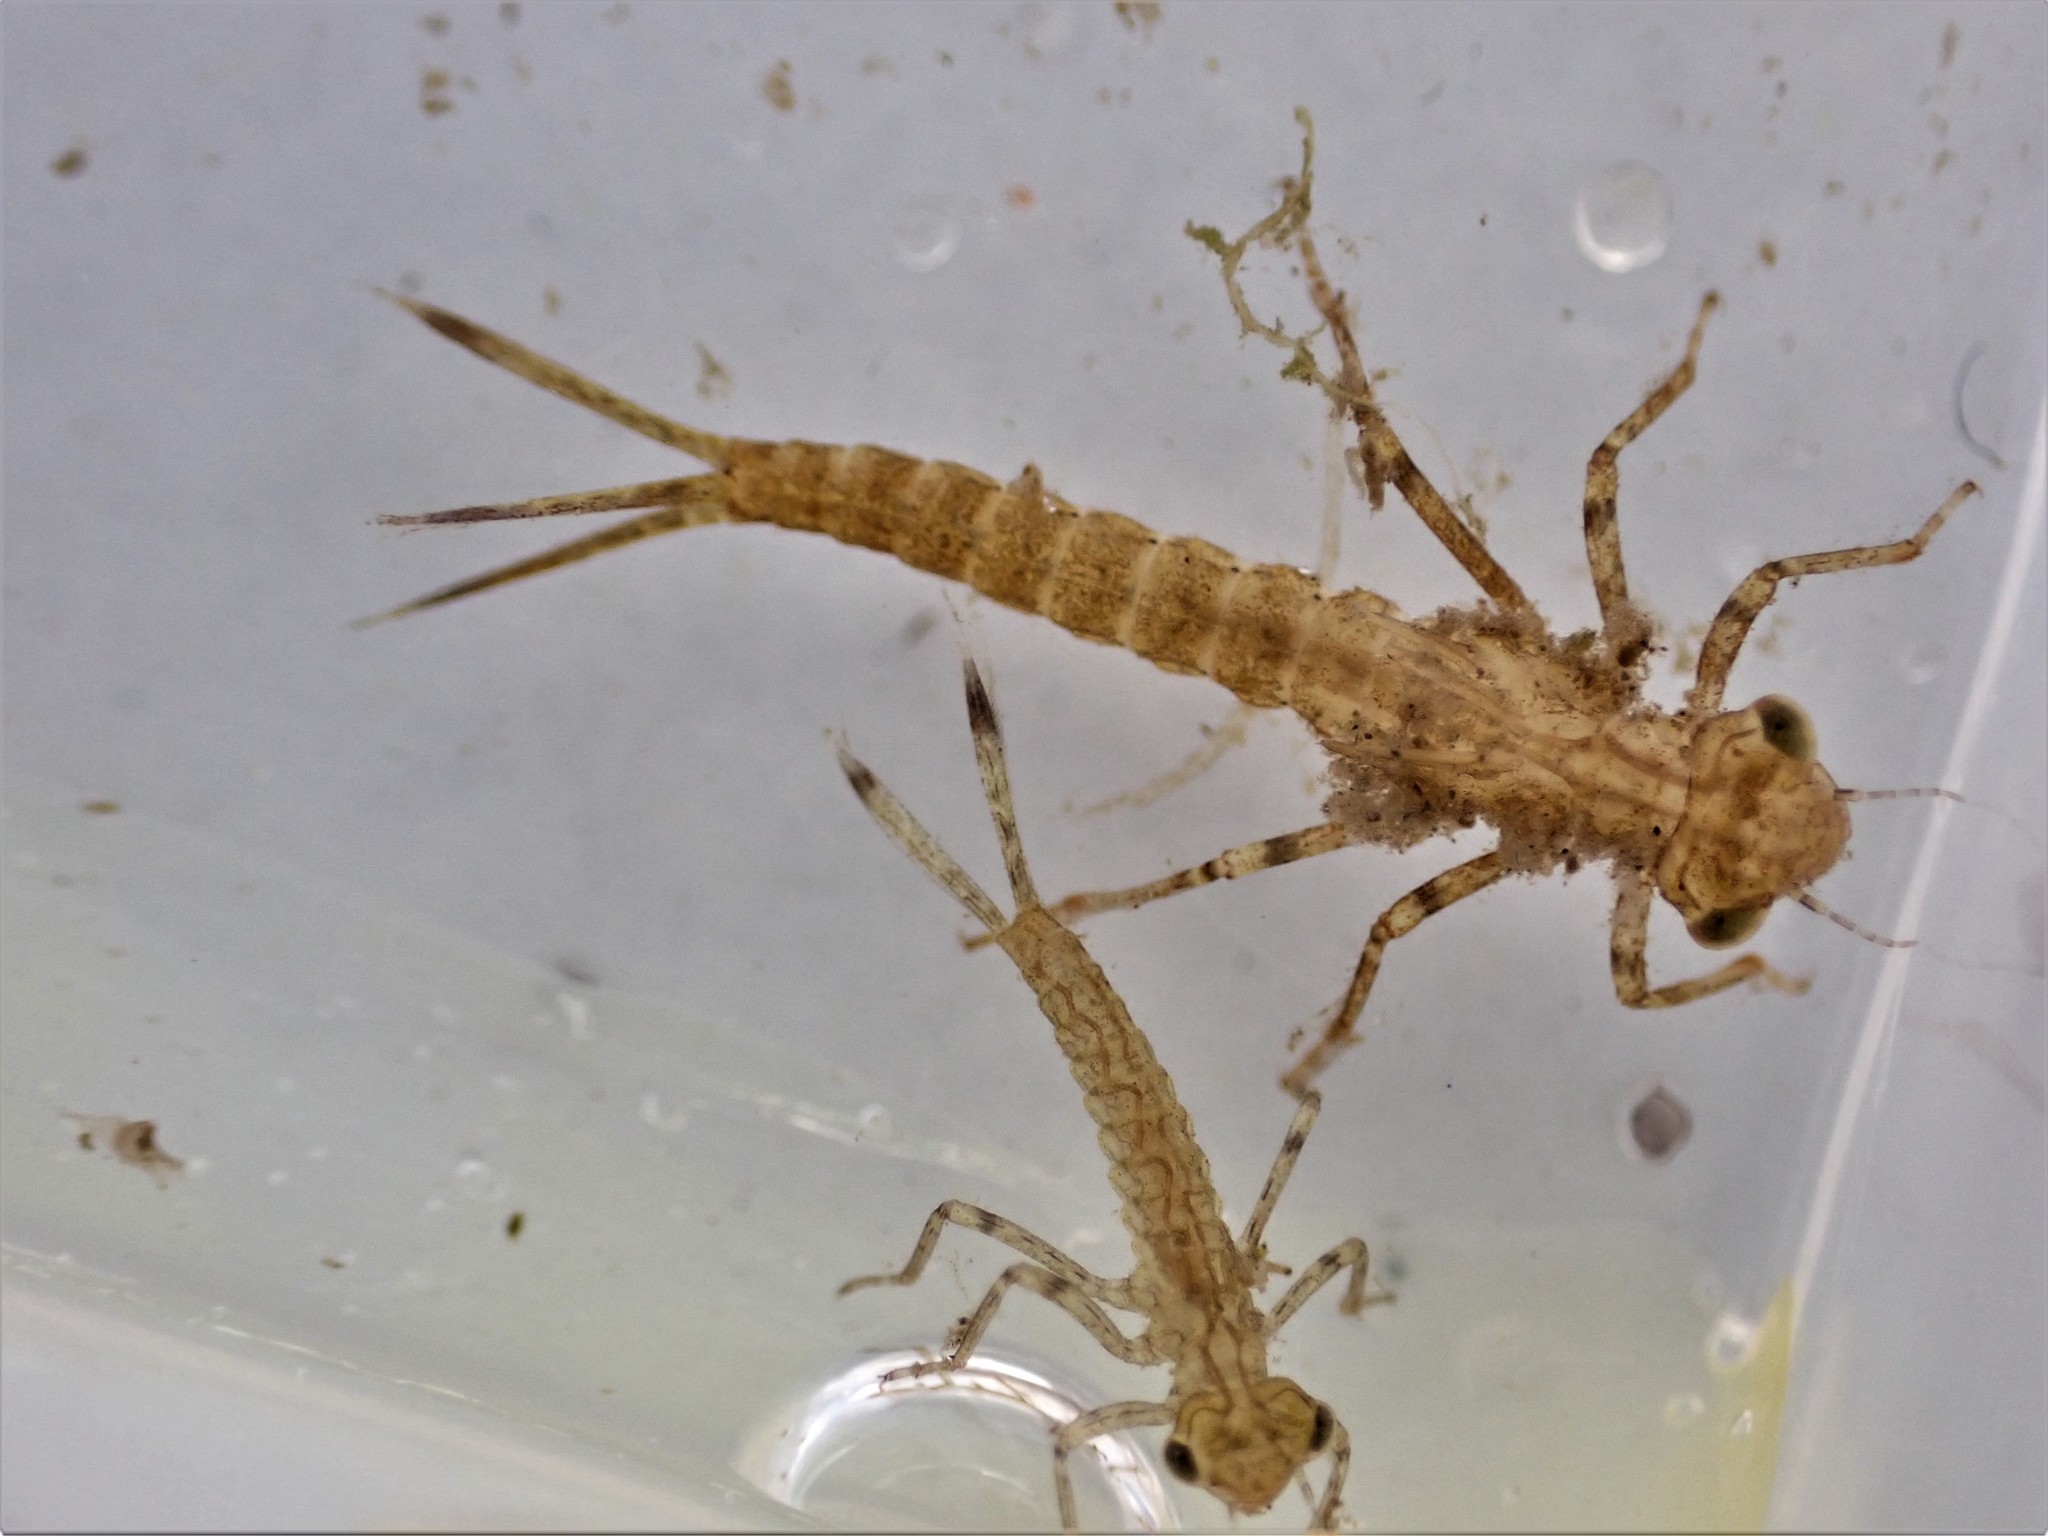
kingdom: Animalia
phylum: Arthropoda
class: Insecta
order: Odonata
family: Coenagrionidae
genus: Xanthocnemis
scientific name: Xanthocnemis zealandica
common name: Common redcoat damselfly
